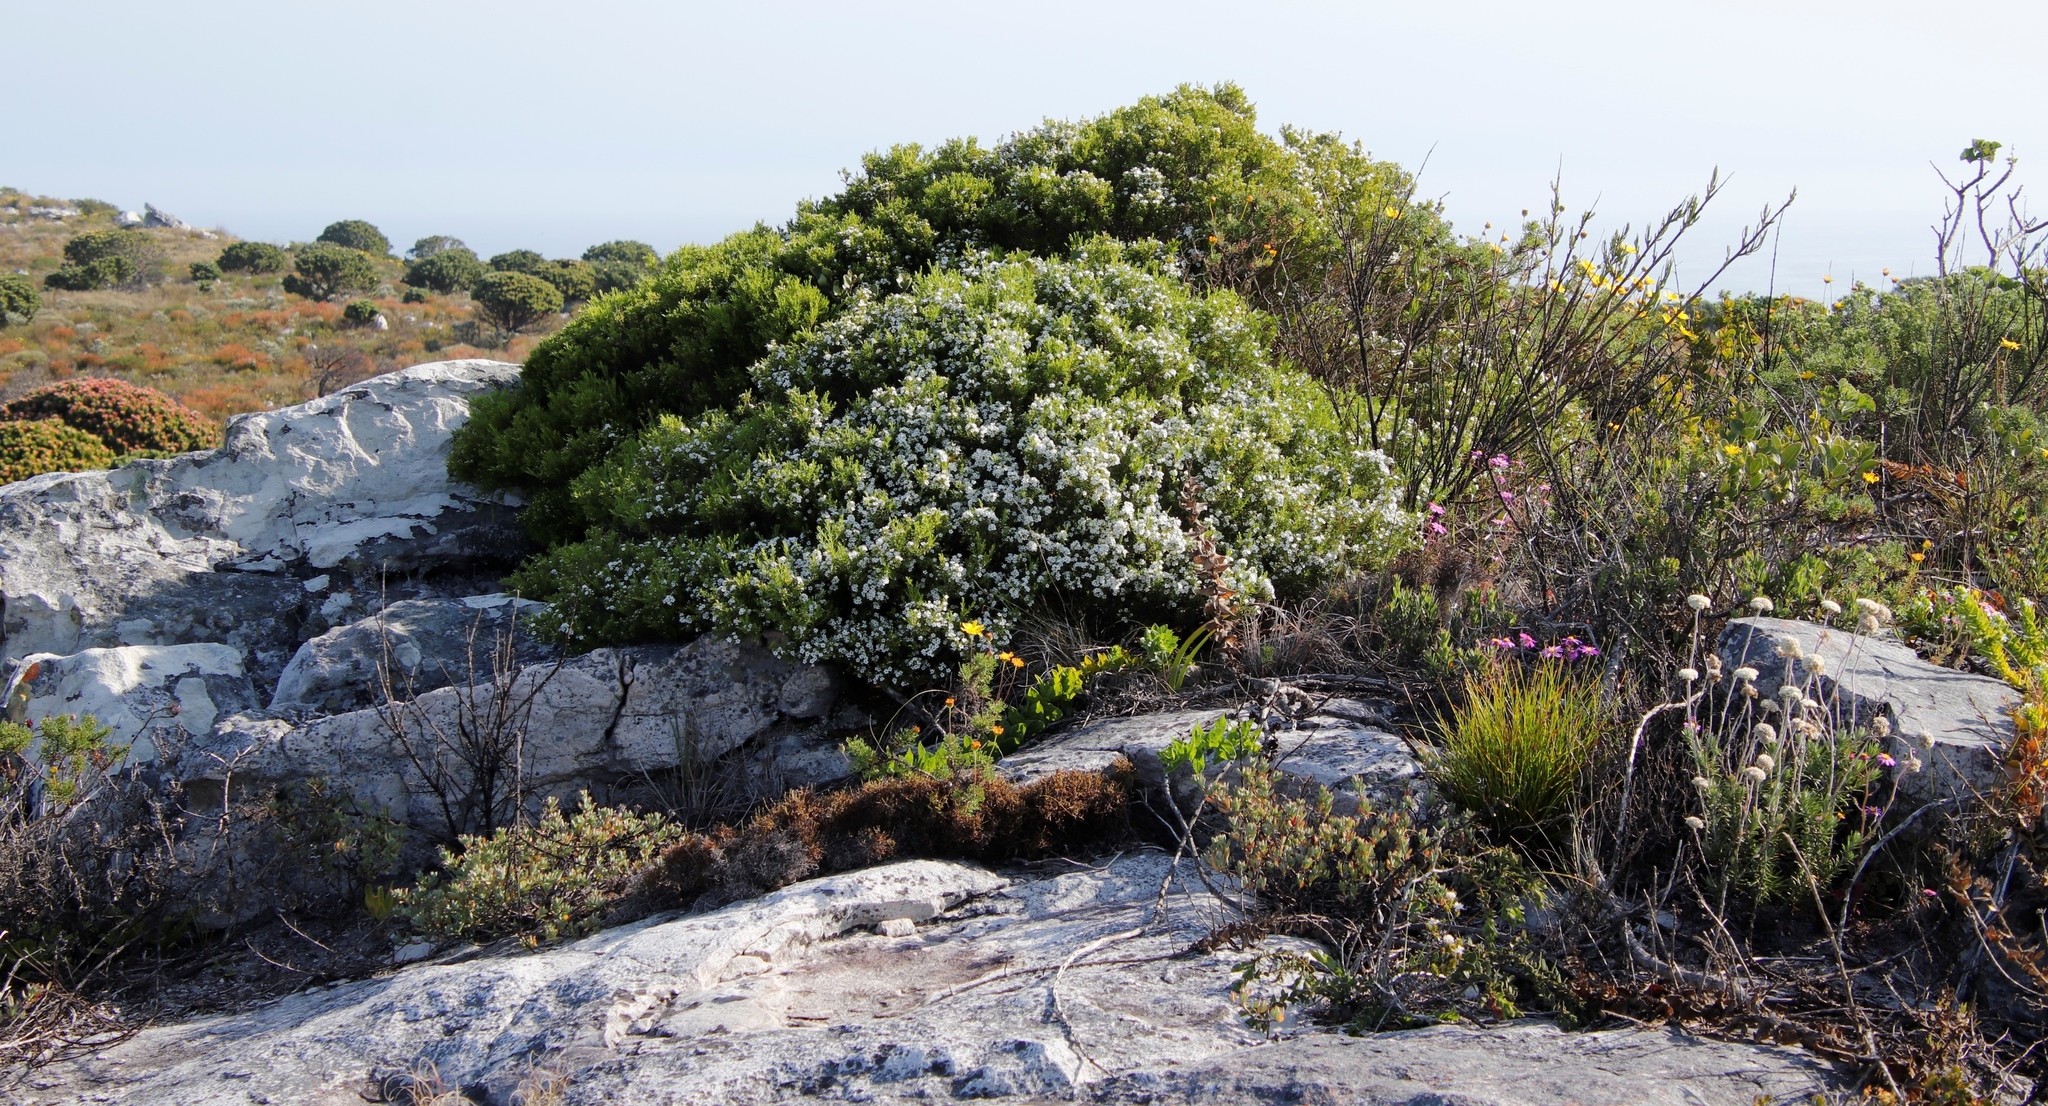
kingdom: Plantae
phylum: Tracheophyta
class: Magnoliopsida
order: Sapindales
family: Rutaceae
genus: Coleonema
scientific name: Coleonema album
